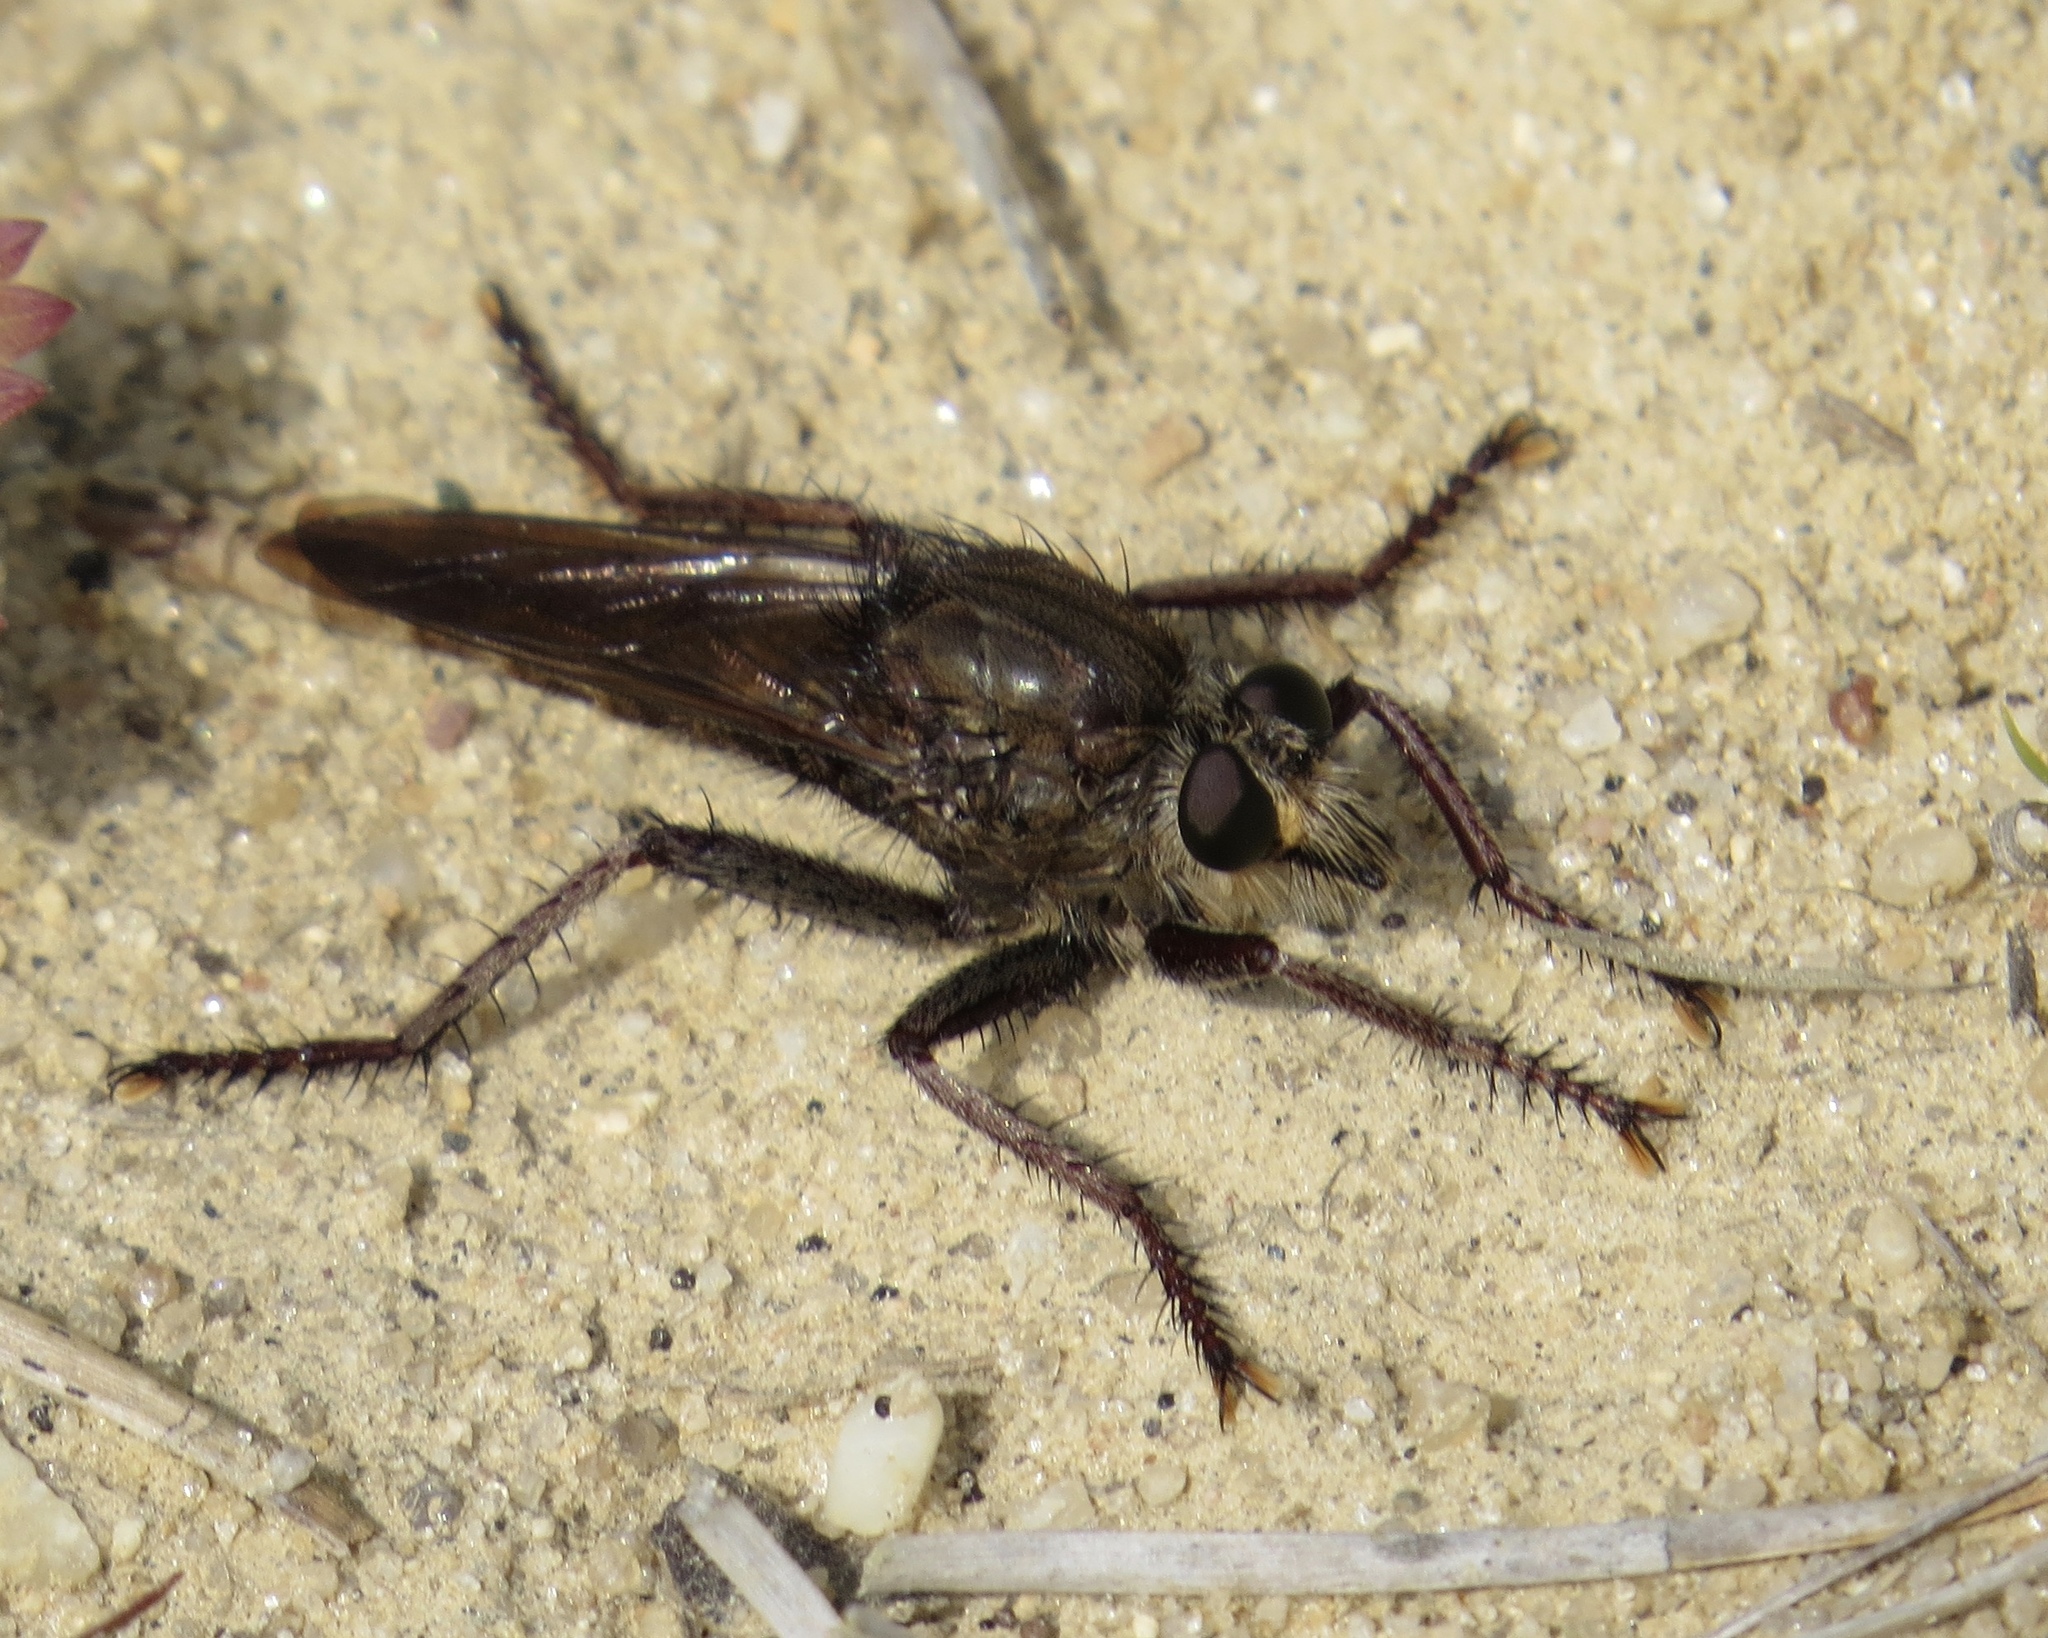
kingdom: Animalia
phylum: Arthropoda
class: Insecta
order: Diptera
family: Asilidae
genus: Proctacanthus
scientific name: Proctacanthus philadelphicus
